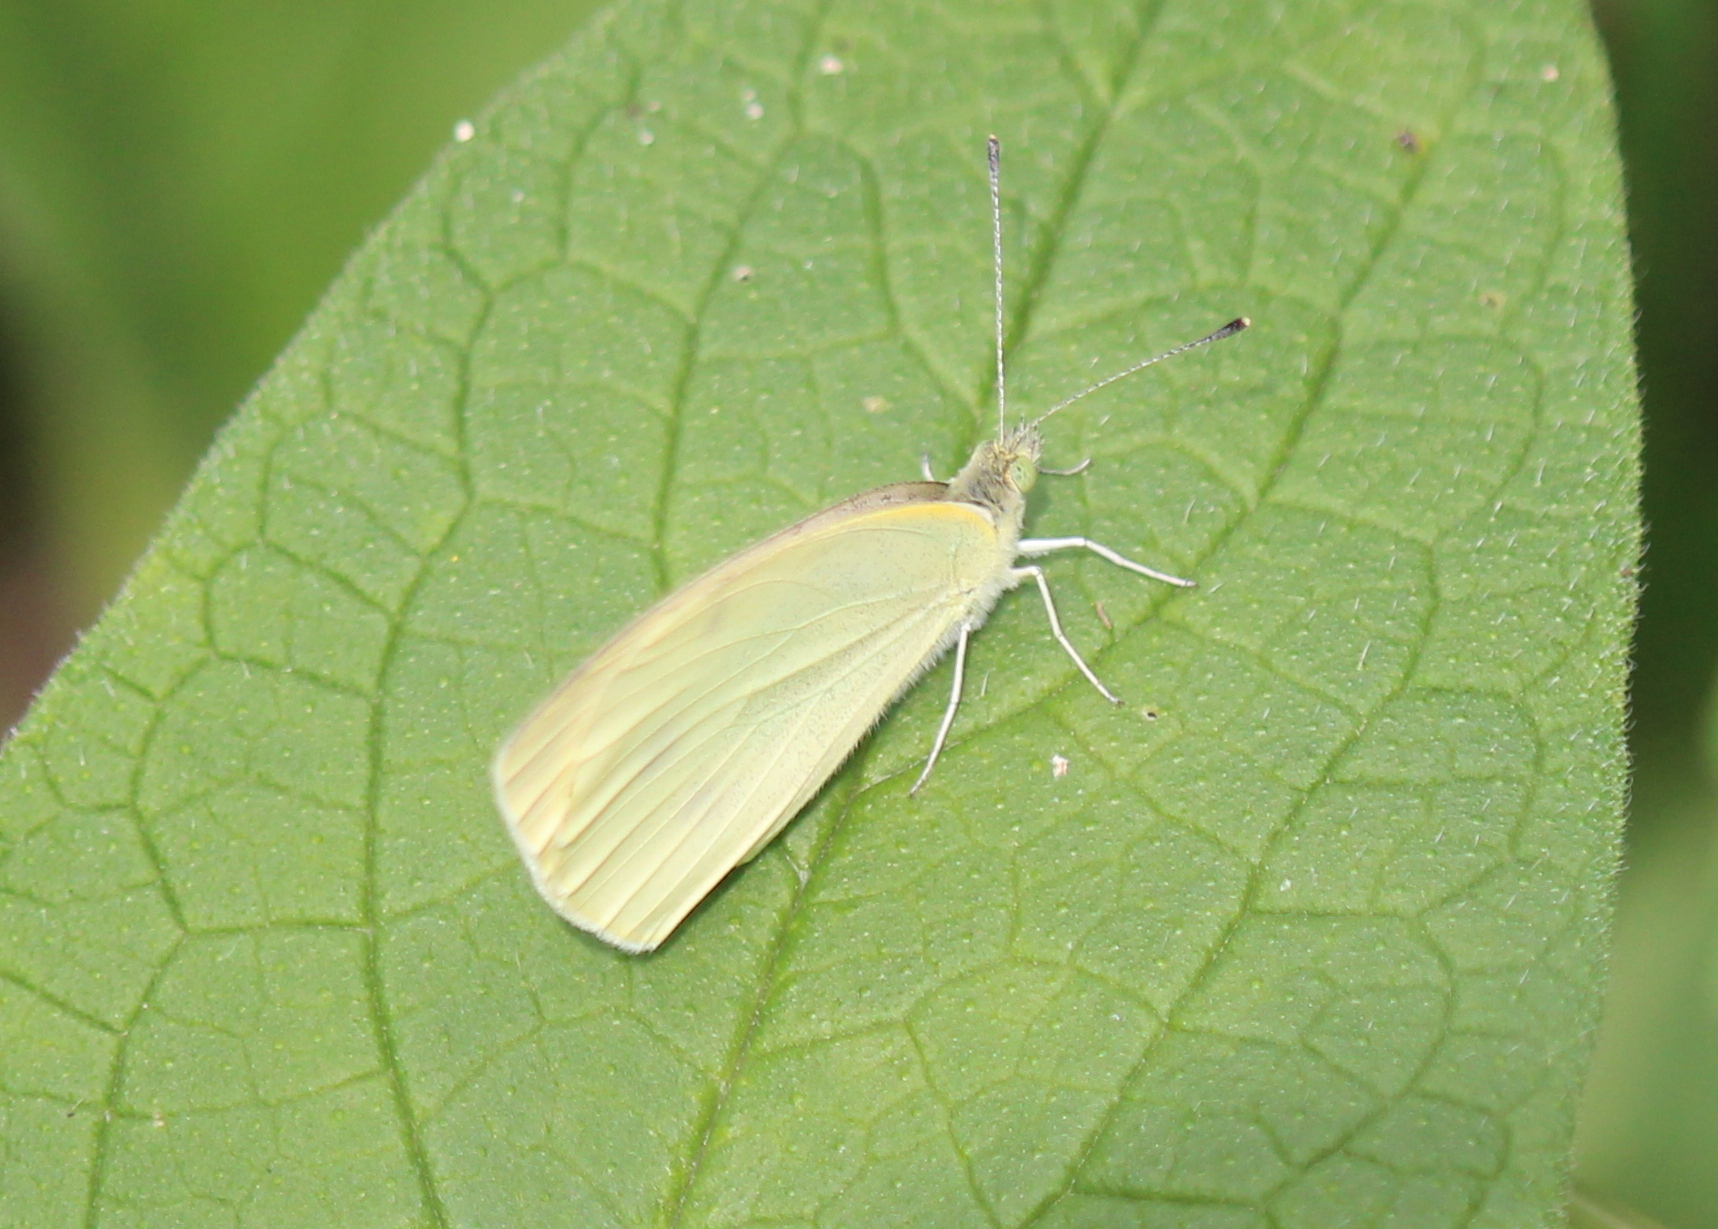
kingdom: Animalia
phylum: Arthropoda
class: Insecta
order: Lepidoptera
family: Pieridae
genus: Pieris
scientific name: Pieris rapae
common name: Small white
